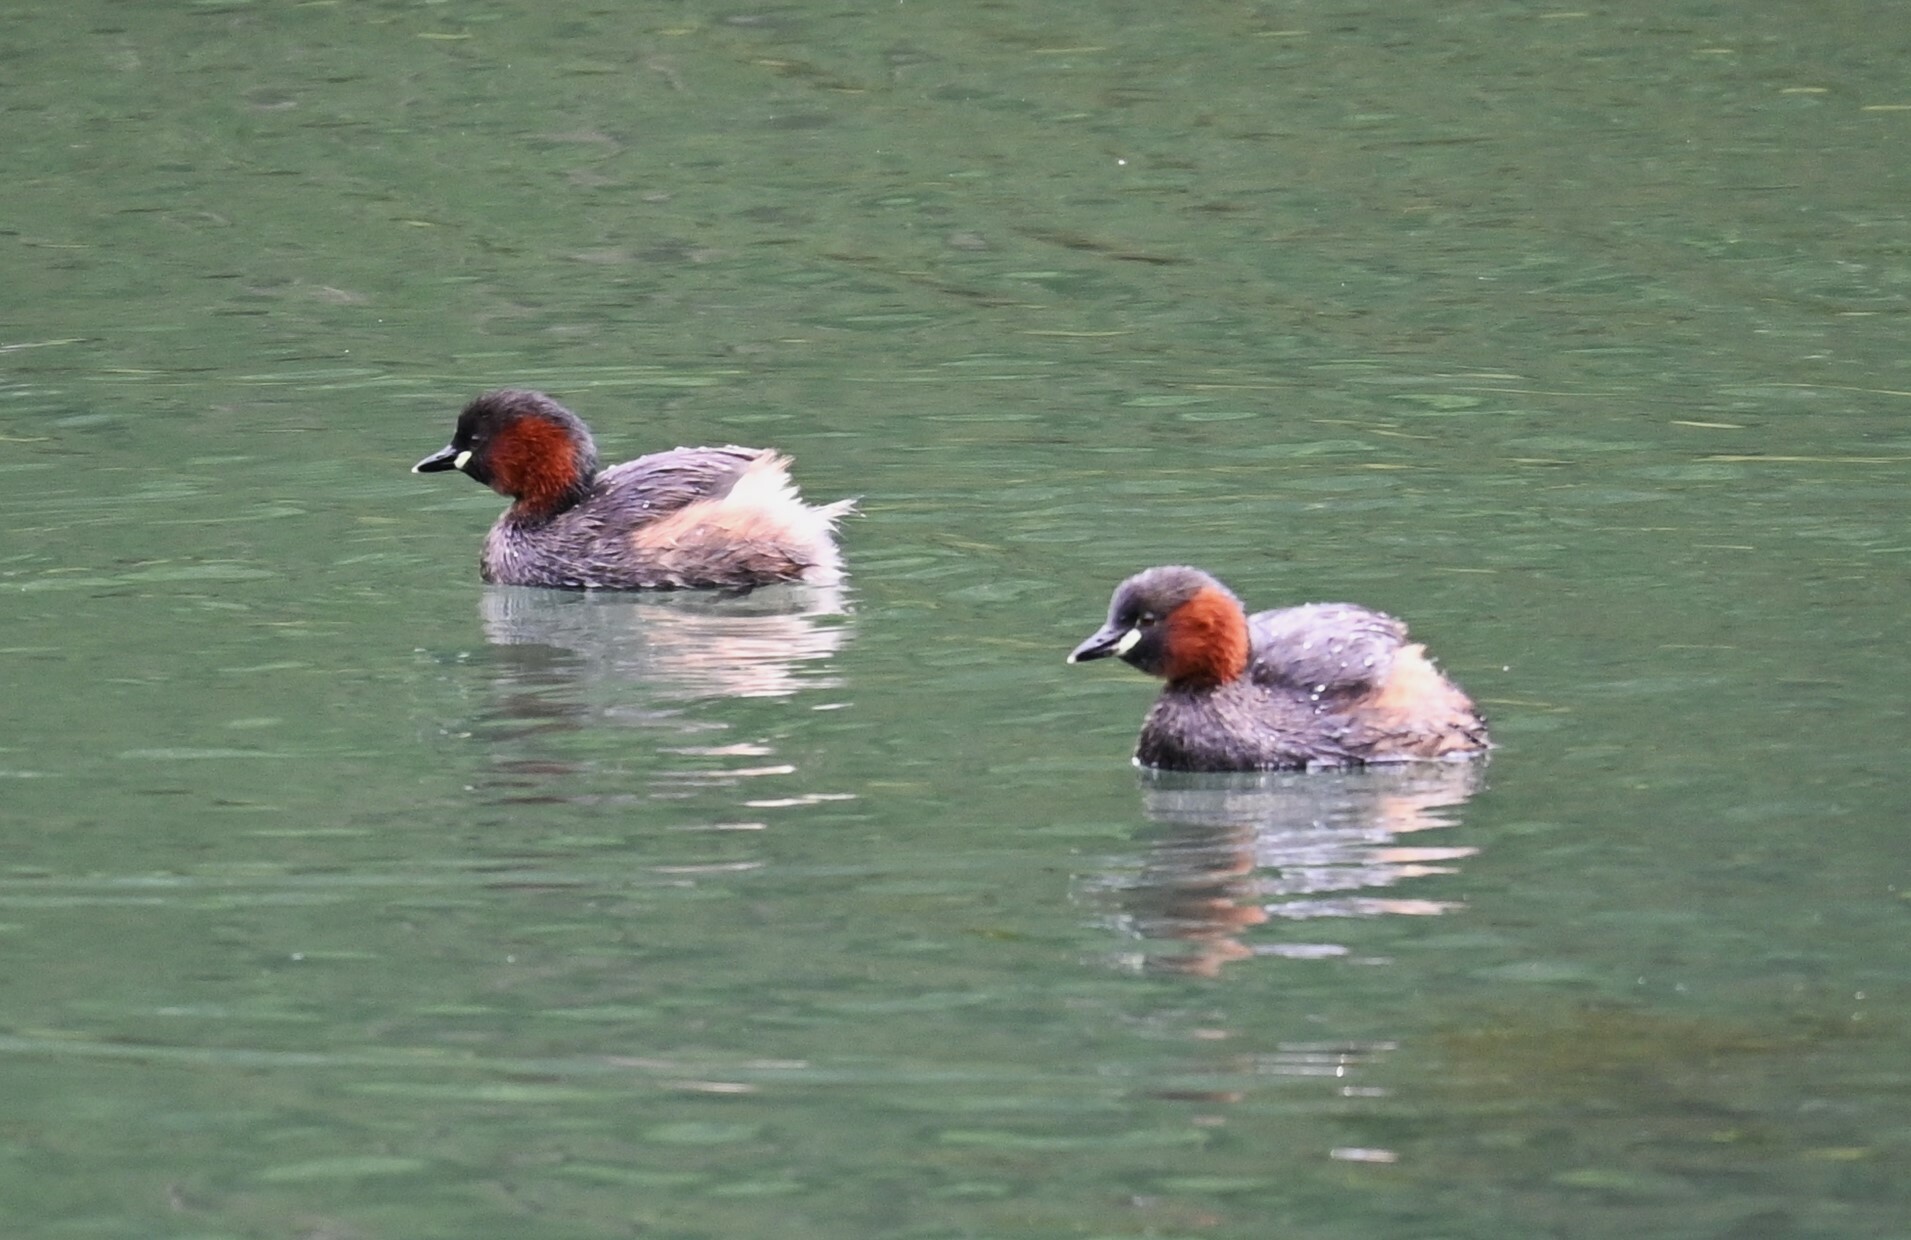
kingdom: Animalia
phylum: Chordata
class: Aves
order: Podicipediformes
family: Podicipedidae
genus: Tachybaptus
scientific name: Tachybaptus ruficollis
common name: Little grebe
